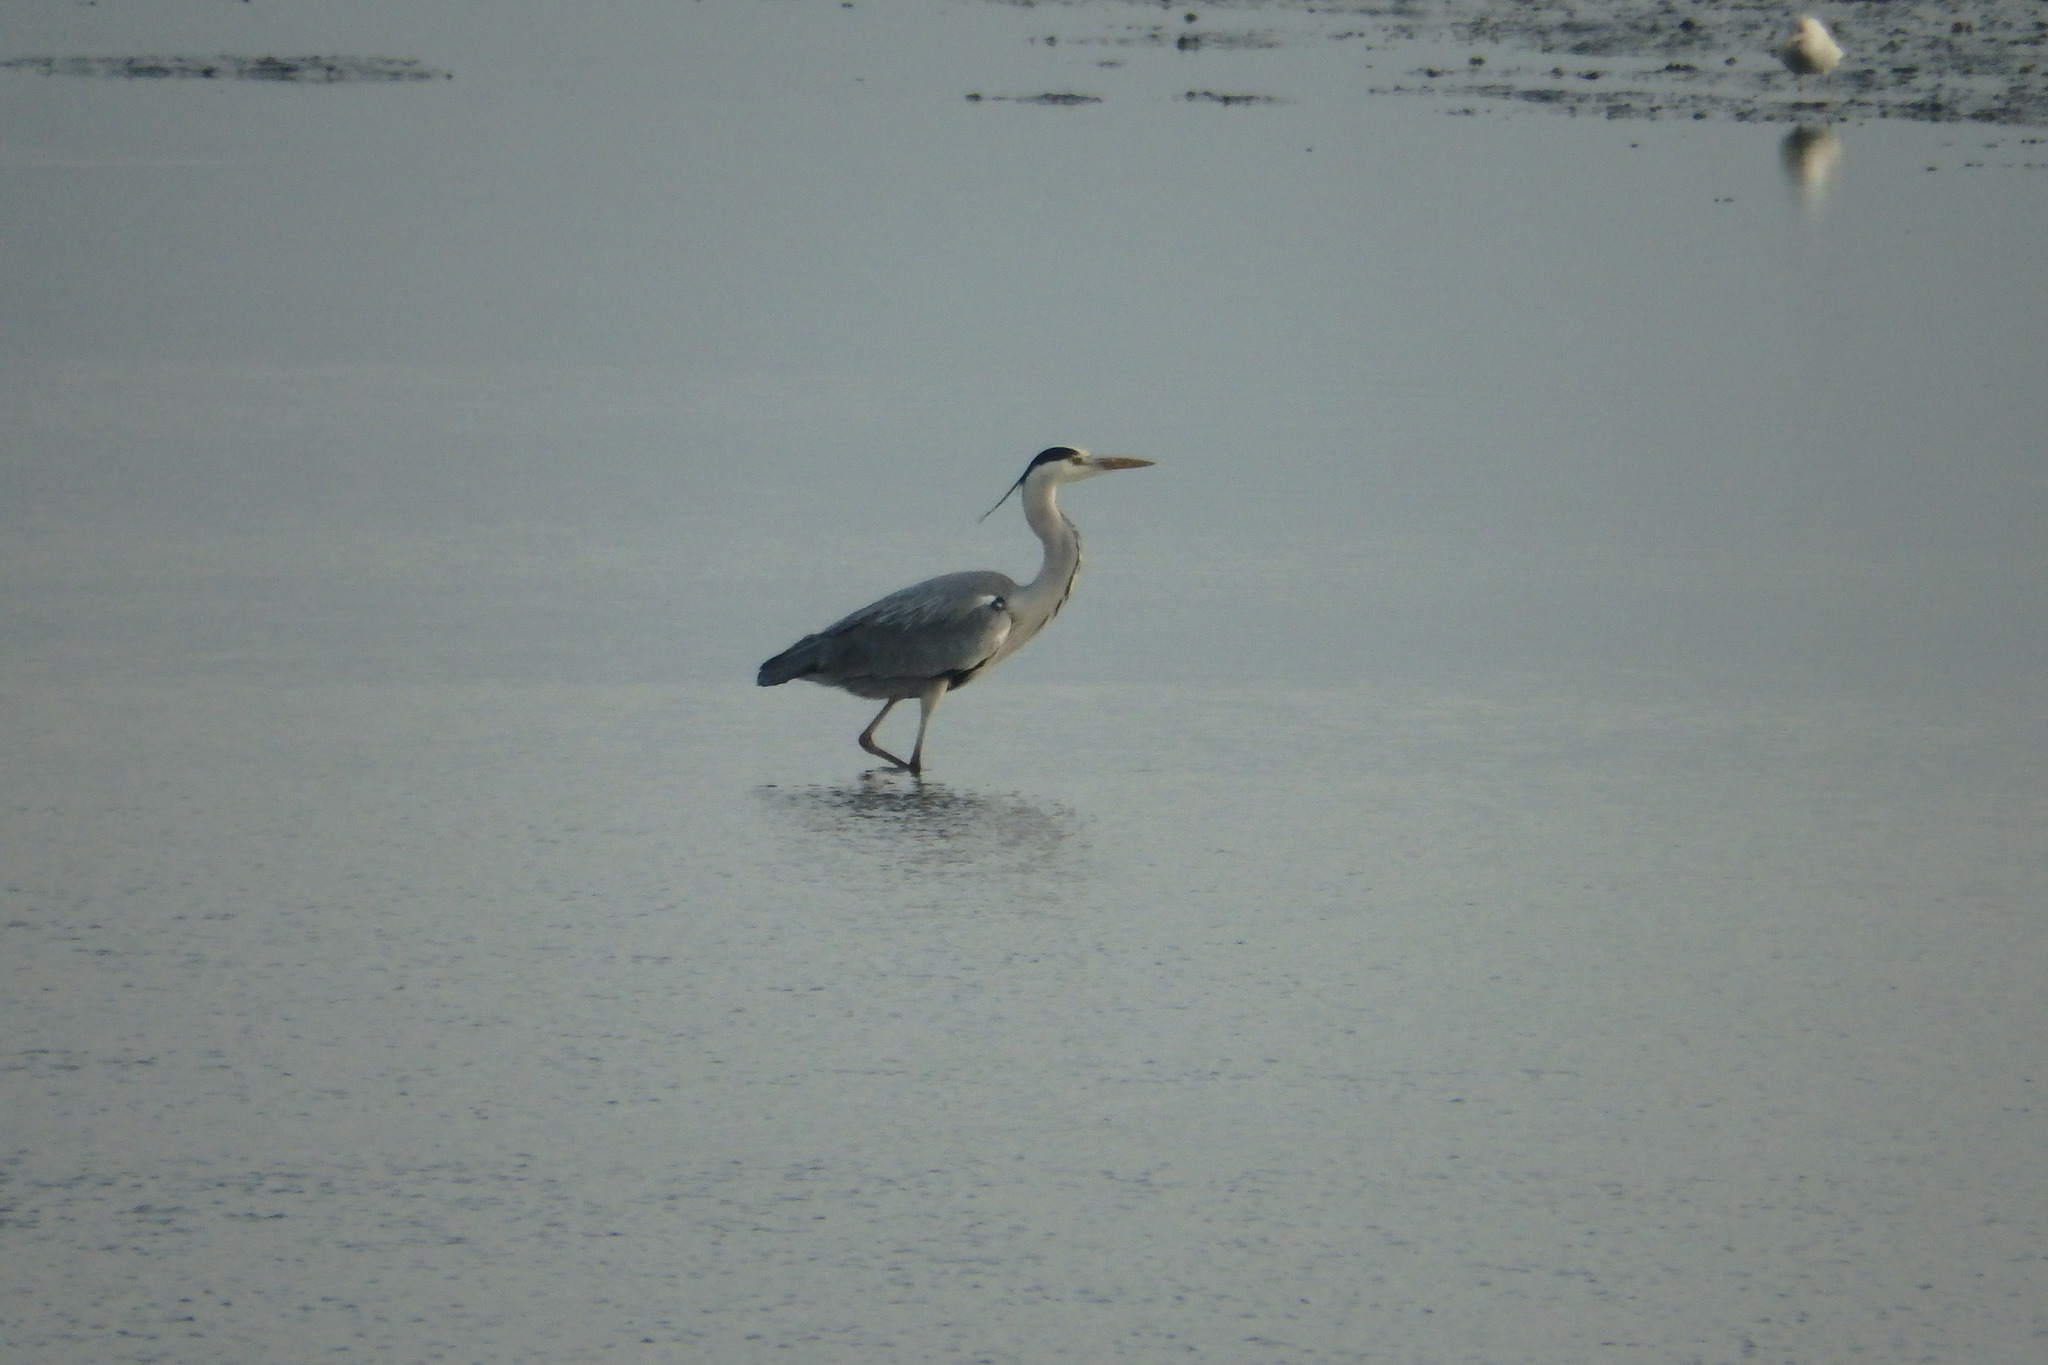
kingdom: Animalia
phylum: Chordata
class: Aves
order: Pelecaniformes
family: Ardeidae
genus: Ardea
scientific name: Ardea cinerea
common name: Grey heron
